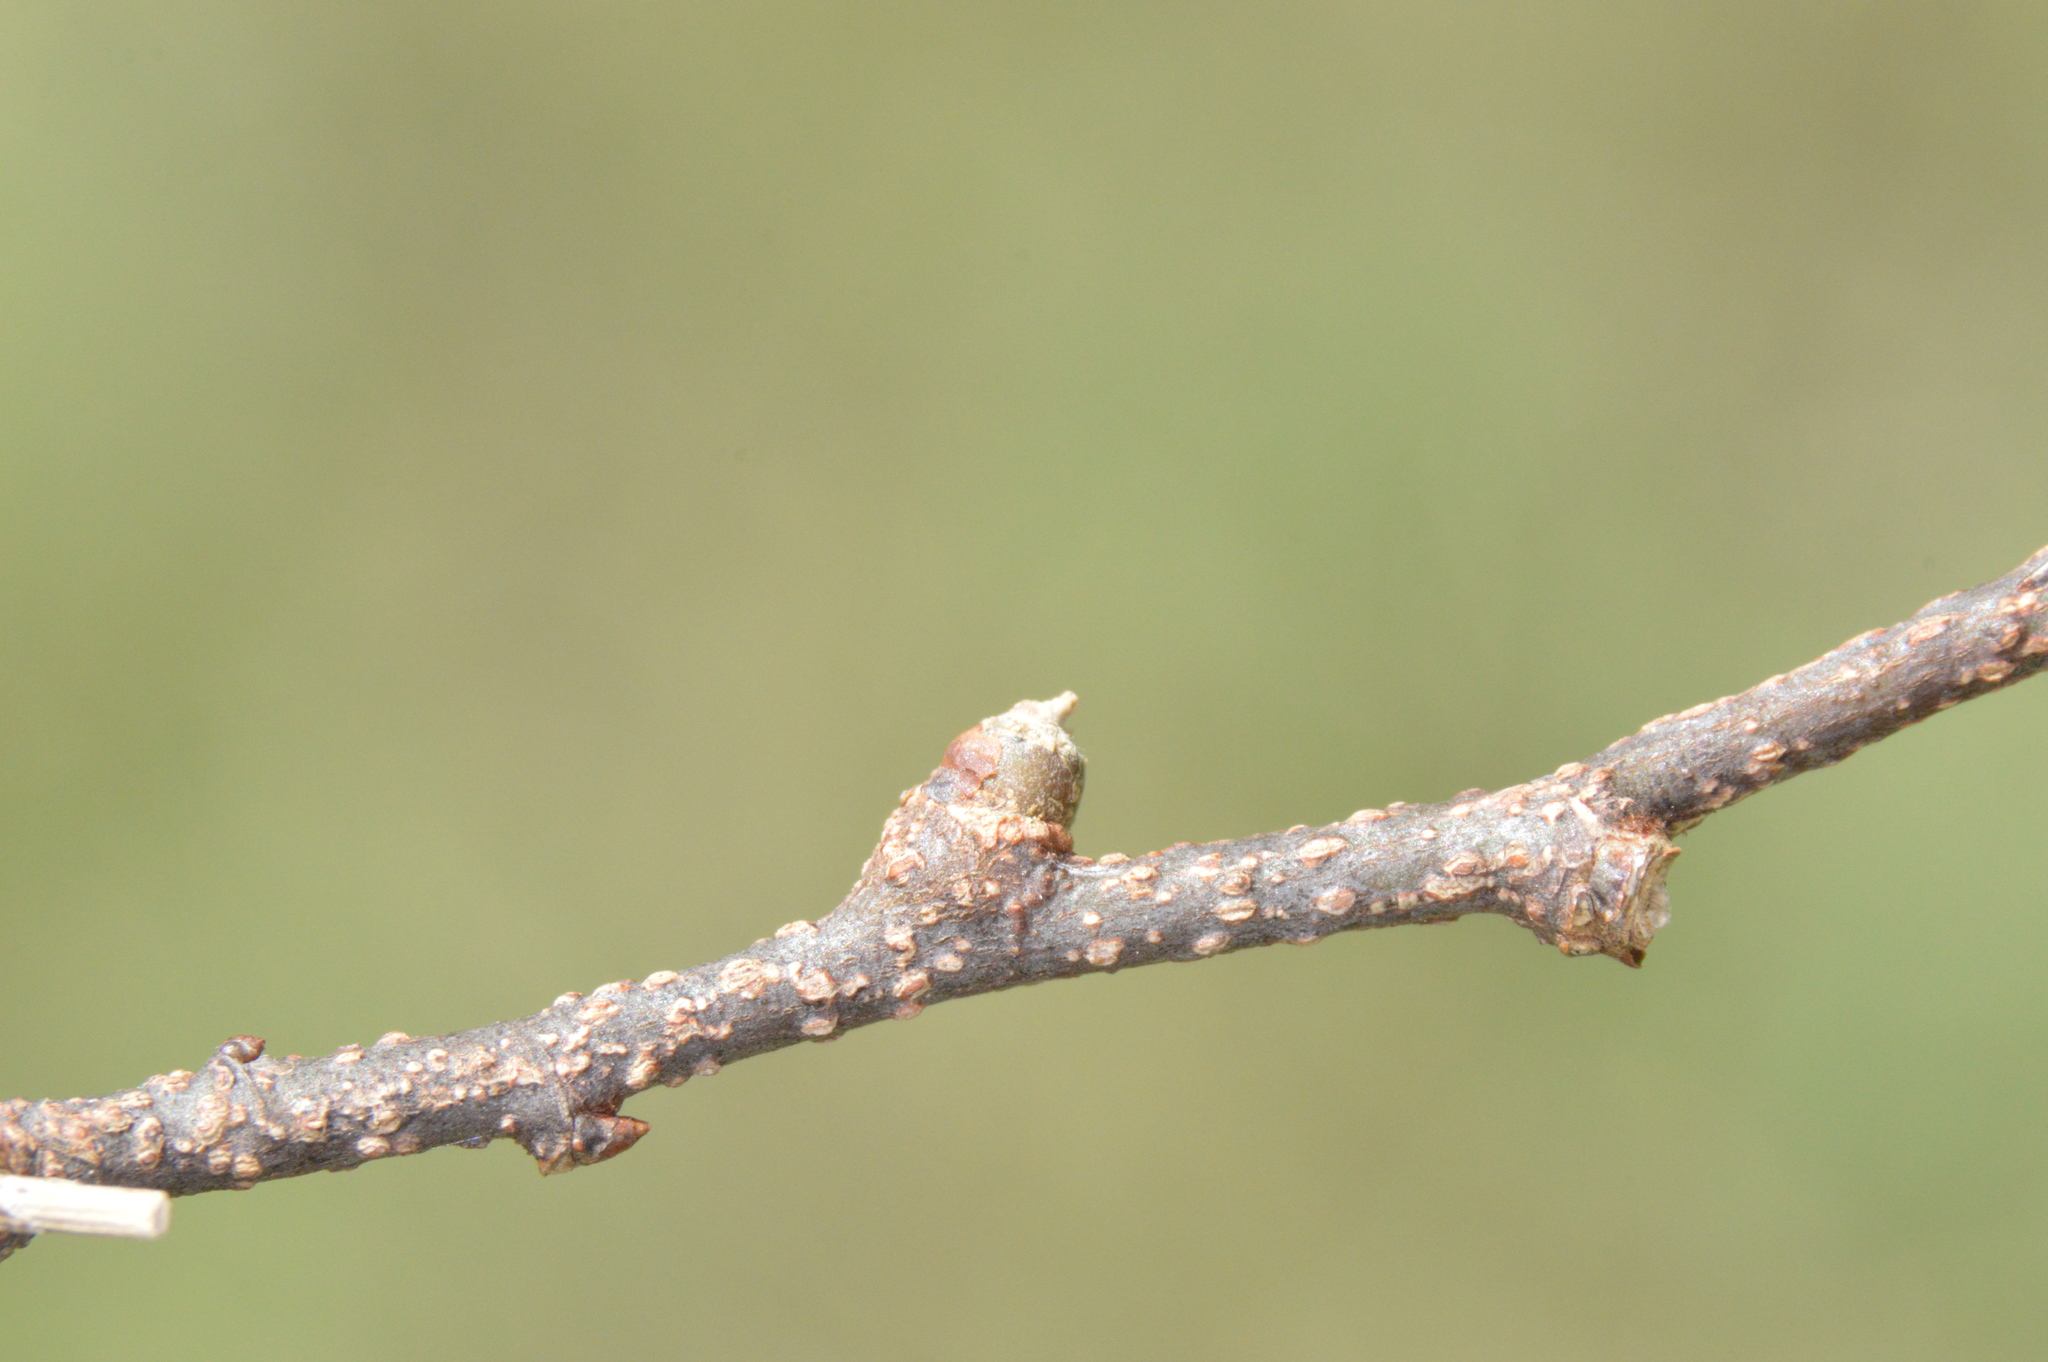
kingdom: Animalia
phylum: Arthropoda
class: Insecta
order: Hemiptera
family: Aphalaridae
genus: Pachypsylla
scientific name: Pachypsylla celtidisgemma
